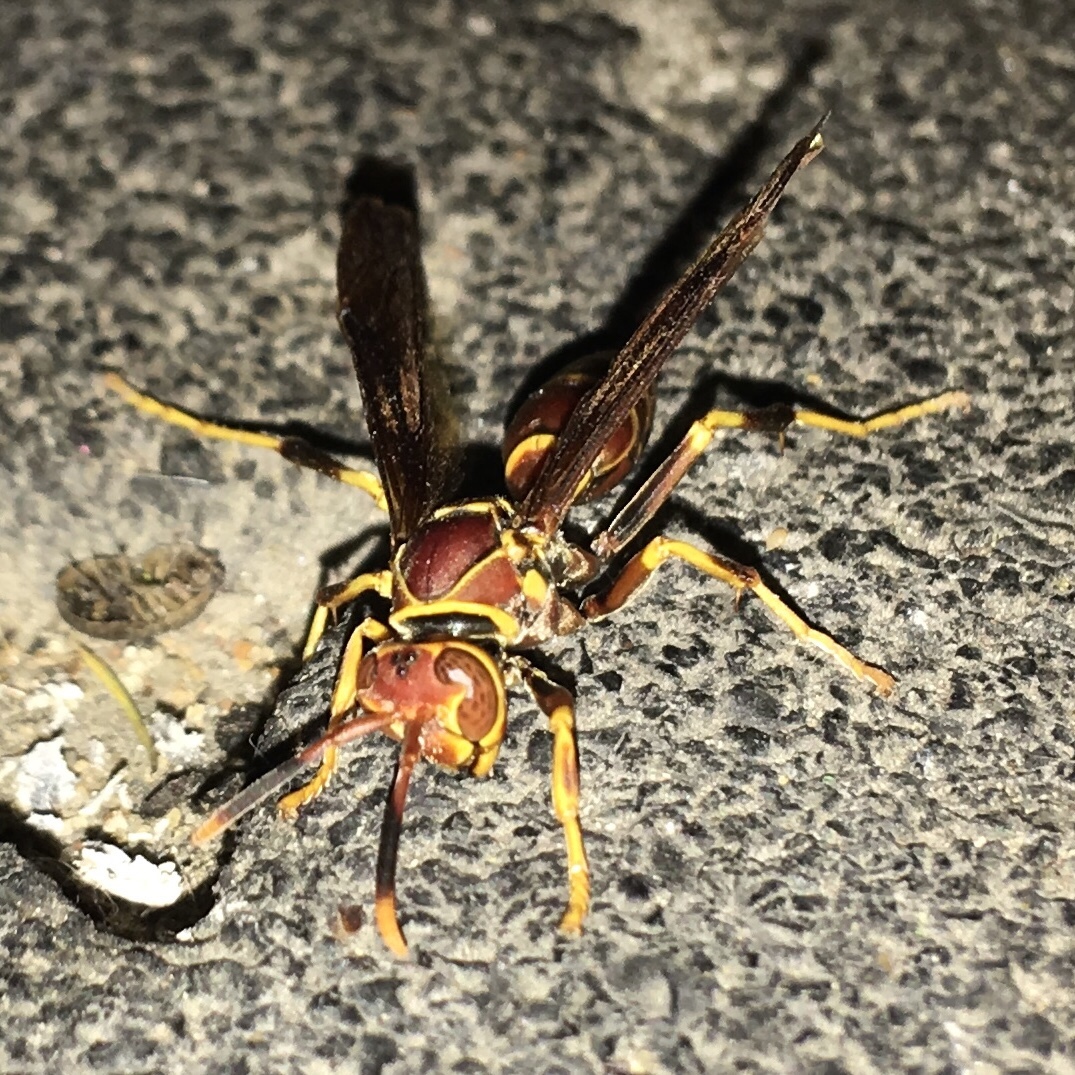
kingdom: Animalia
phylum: Arthropoda
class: Insecta
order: Hymenoptera
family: Eumenidae
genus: Polistes
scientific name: Polistes exclamans
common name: Paper wasp
